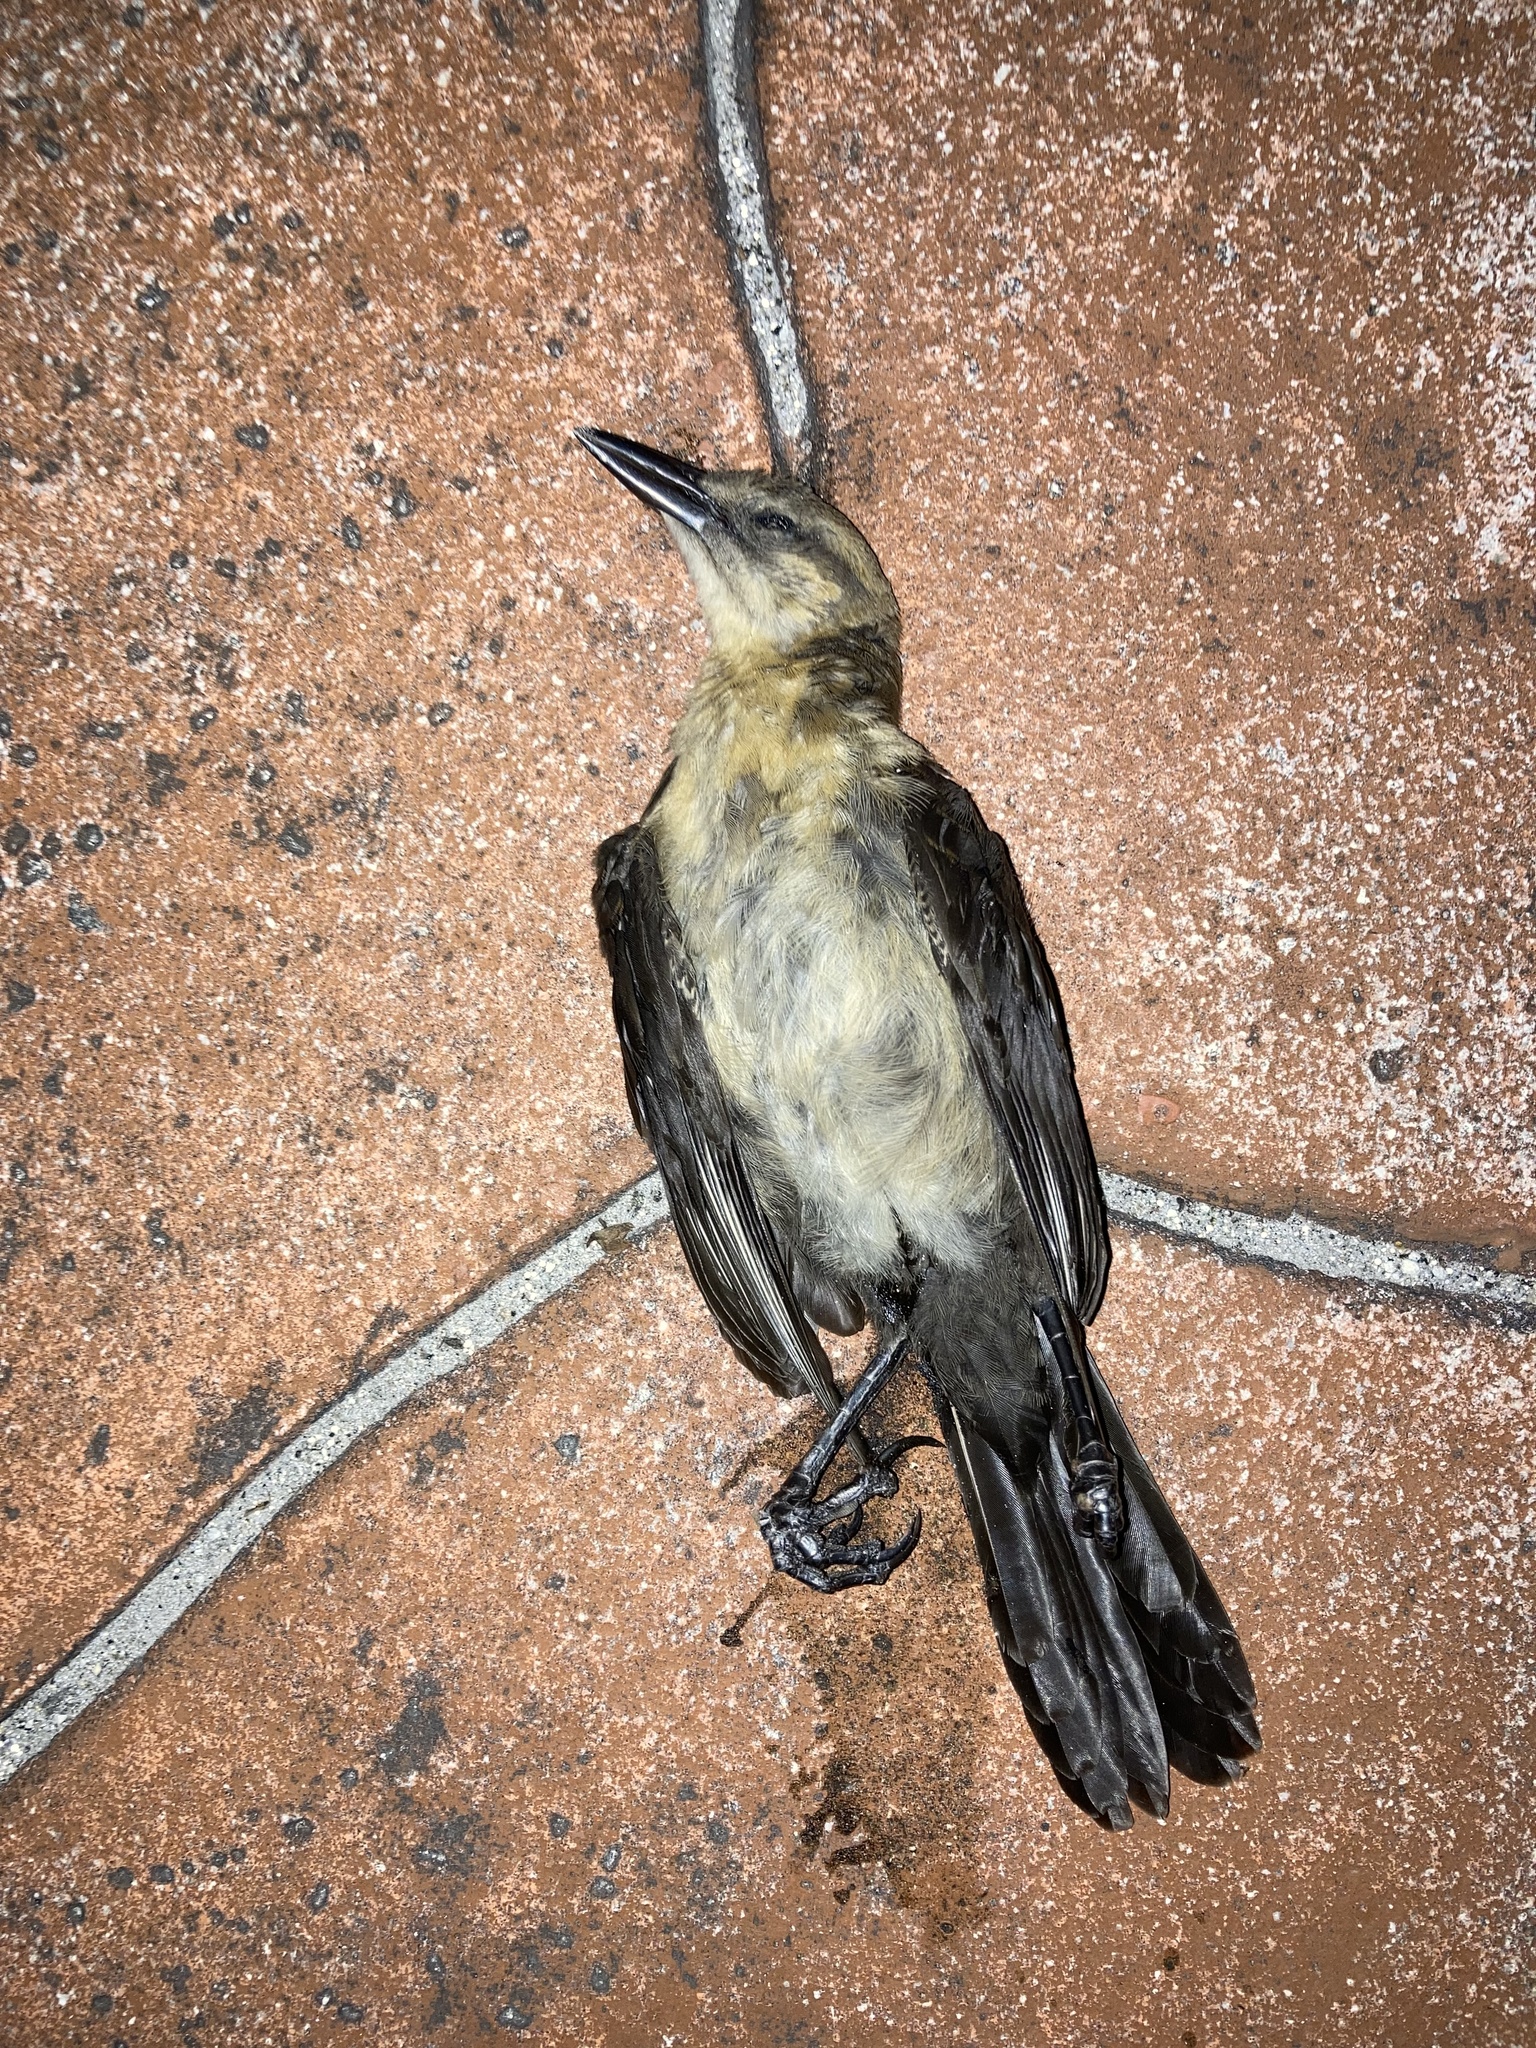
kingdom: Animalia
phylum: Chordata
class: Aves
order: Passeriformes
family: Icteridae
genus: Quiscalus
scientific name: Quiscalus major
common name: Boat-tailed grackle
